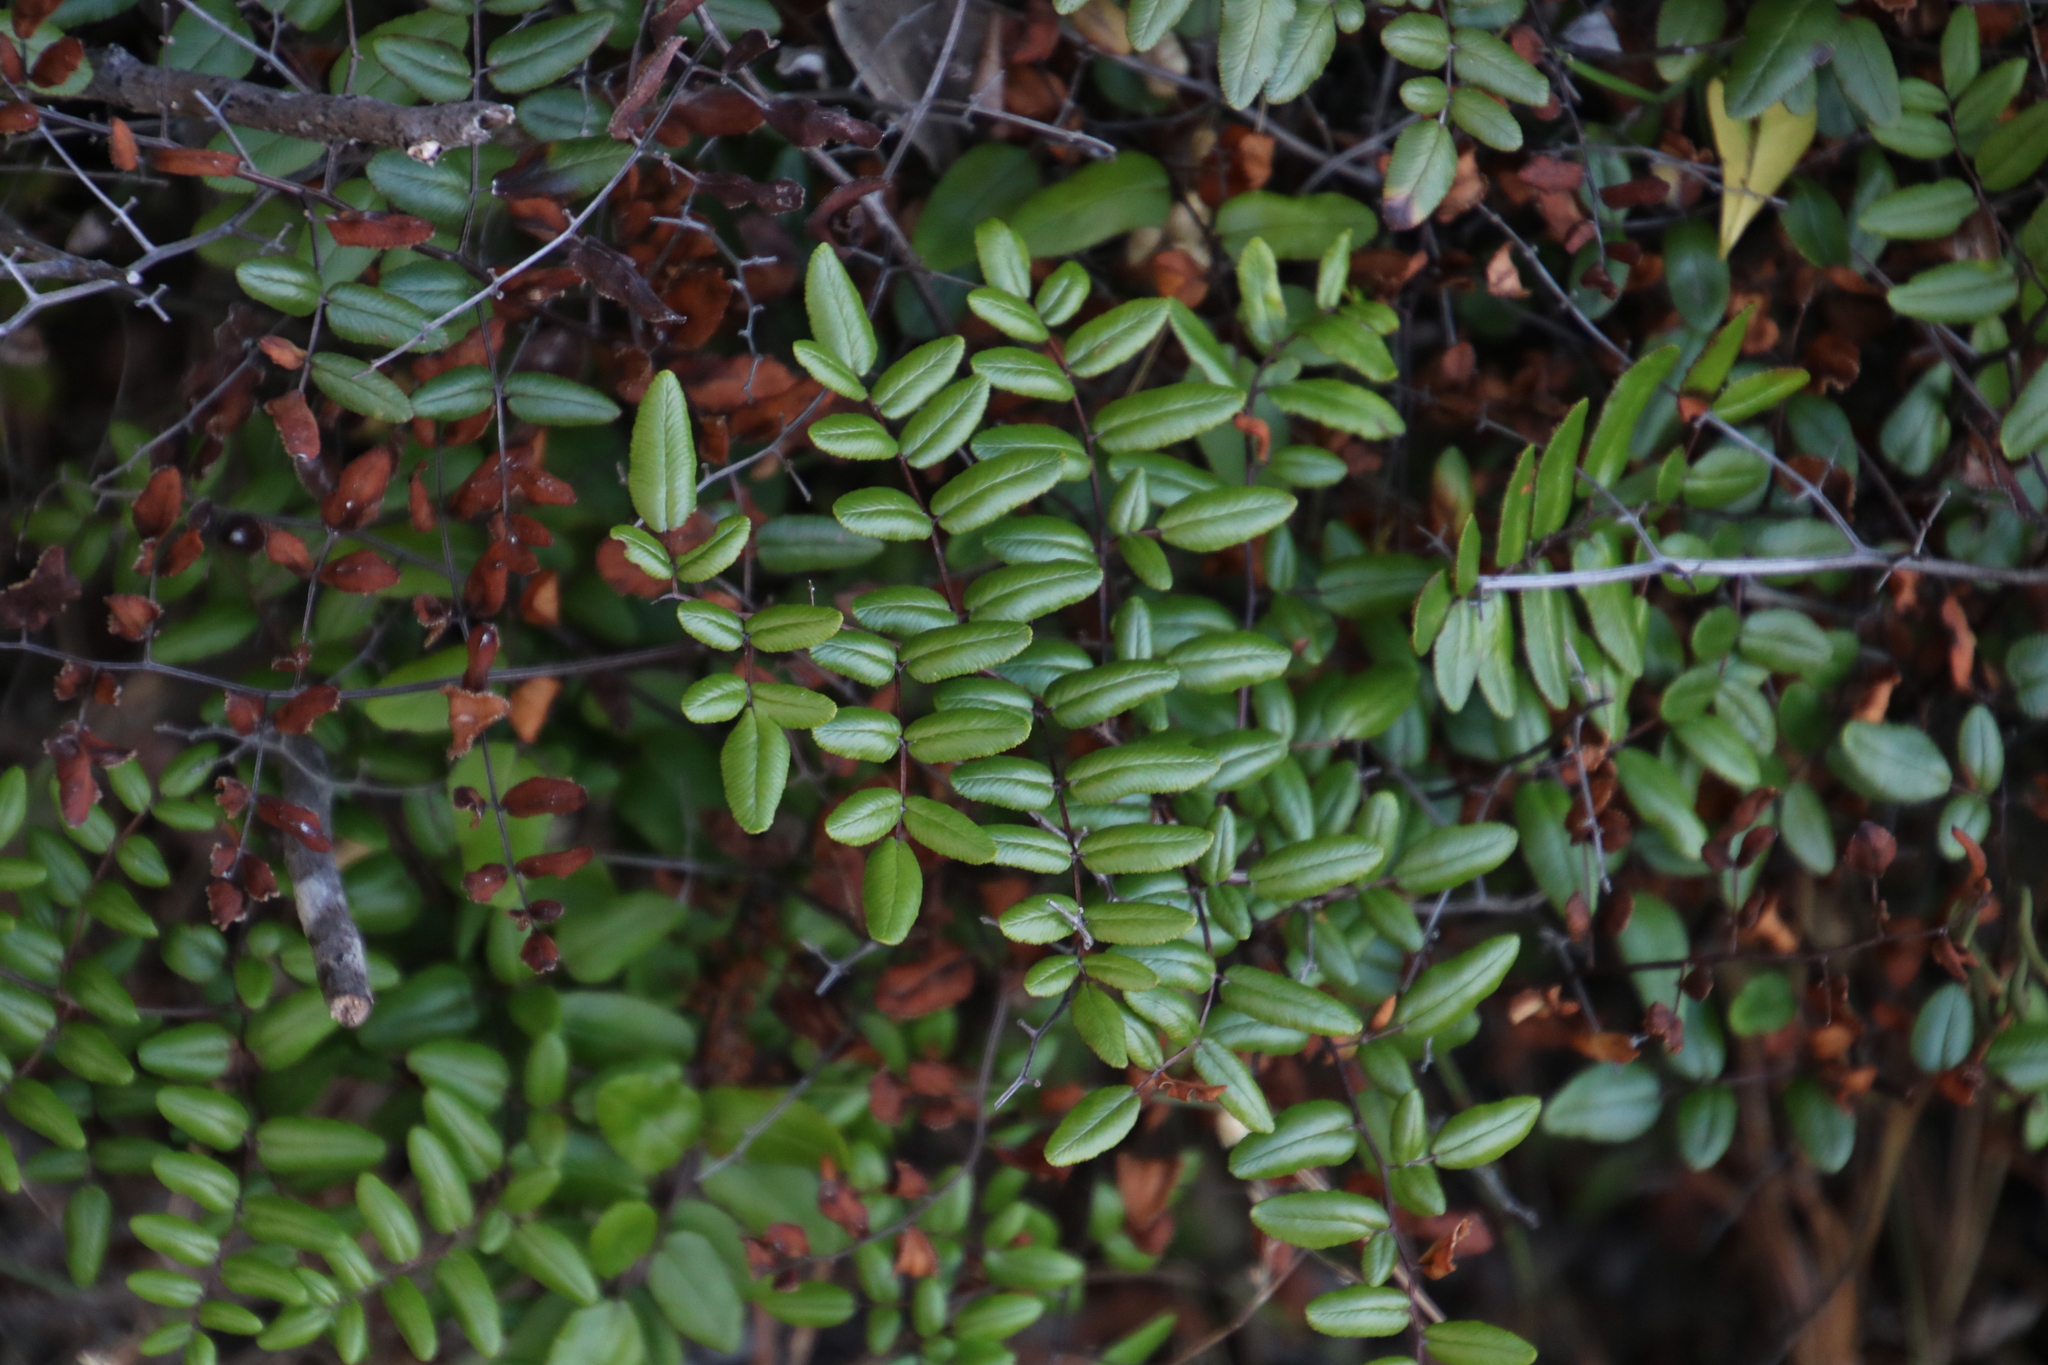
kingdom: Plantae
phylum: Tracheophyta
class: Polypodiopsida
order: Polypodiales
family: Pteridaceae
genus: Pellaea
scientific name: Pellaea pteroides
